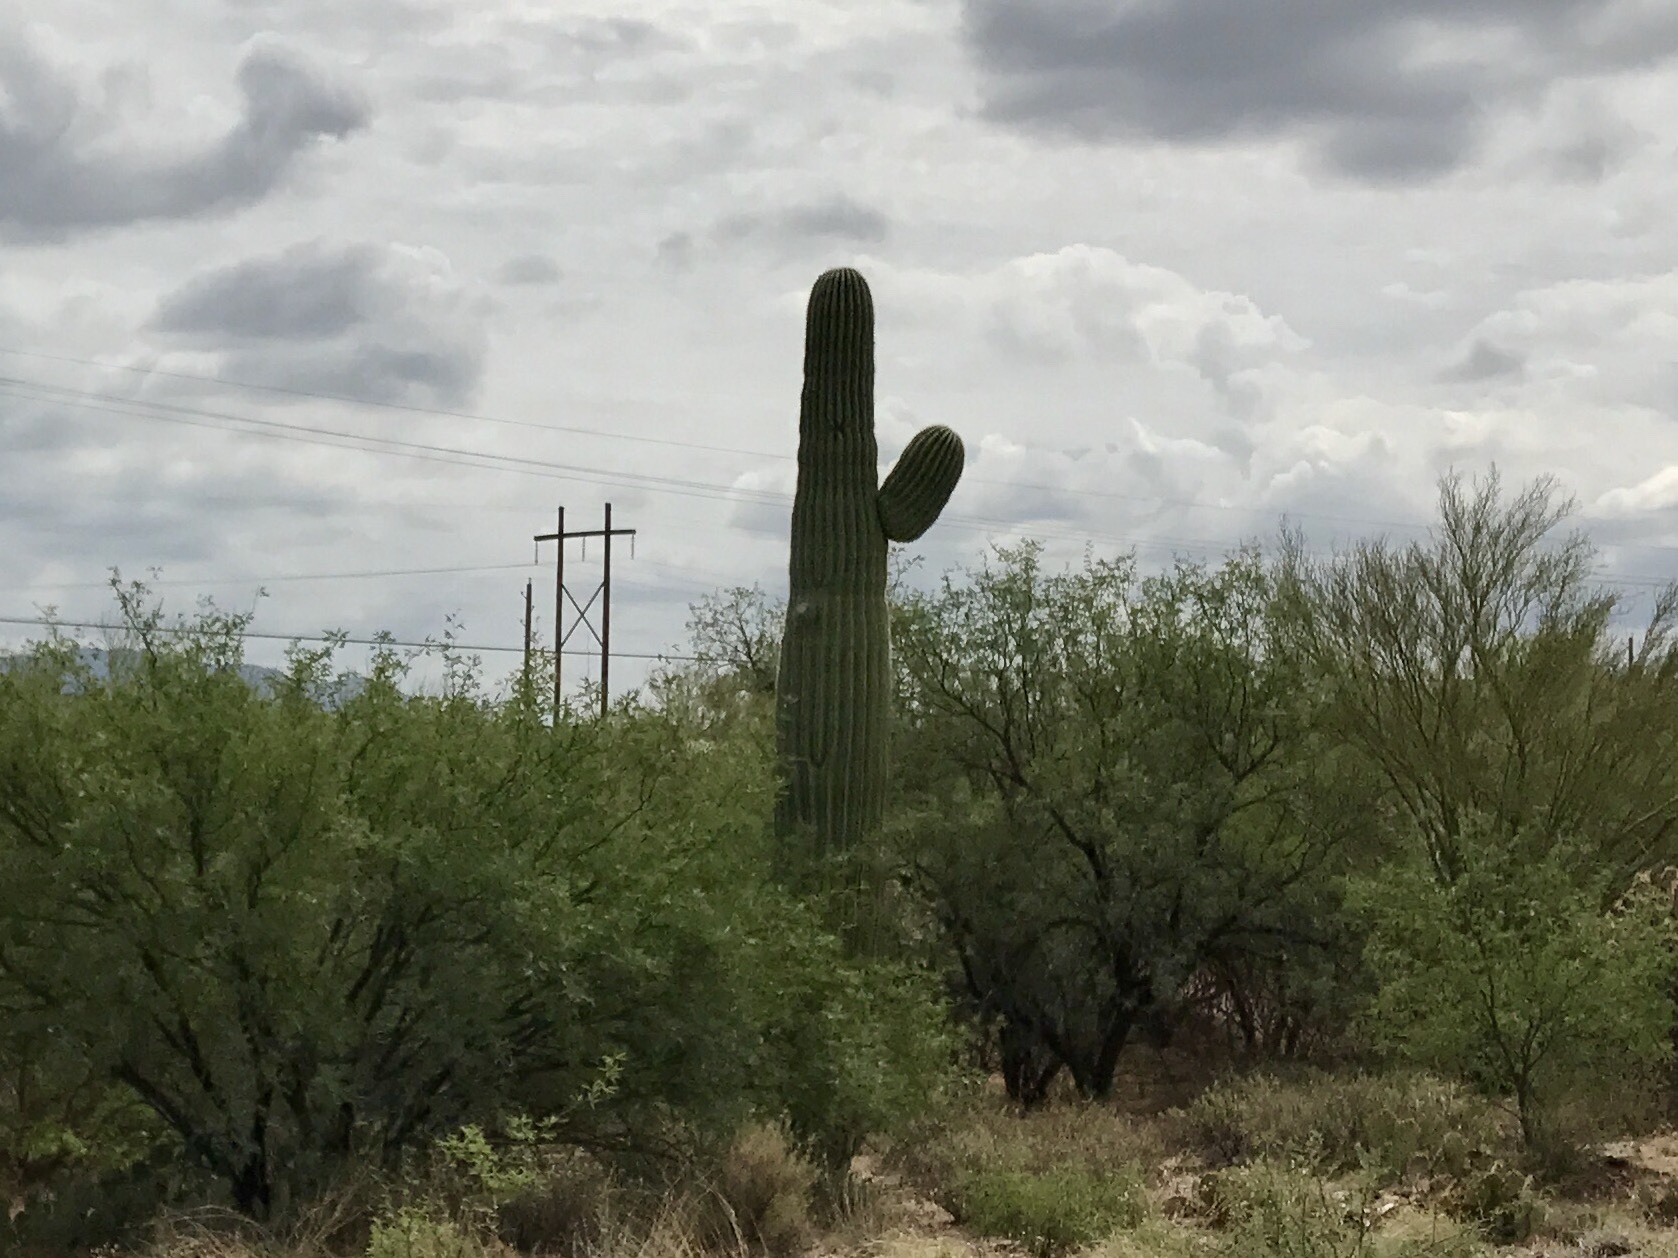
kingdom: Plantae
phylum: Tracheophyta
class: Magnoliopsida
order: Caryophyllales
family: Cactaceae
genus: Carnegiea
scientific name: Carnegiea gigantea
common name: Saguaro
